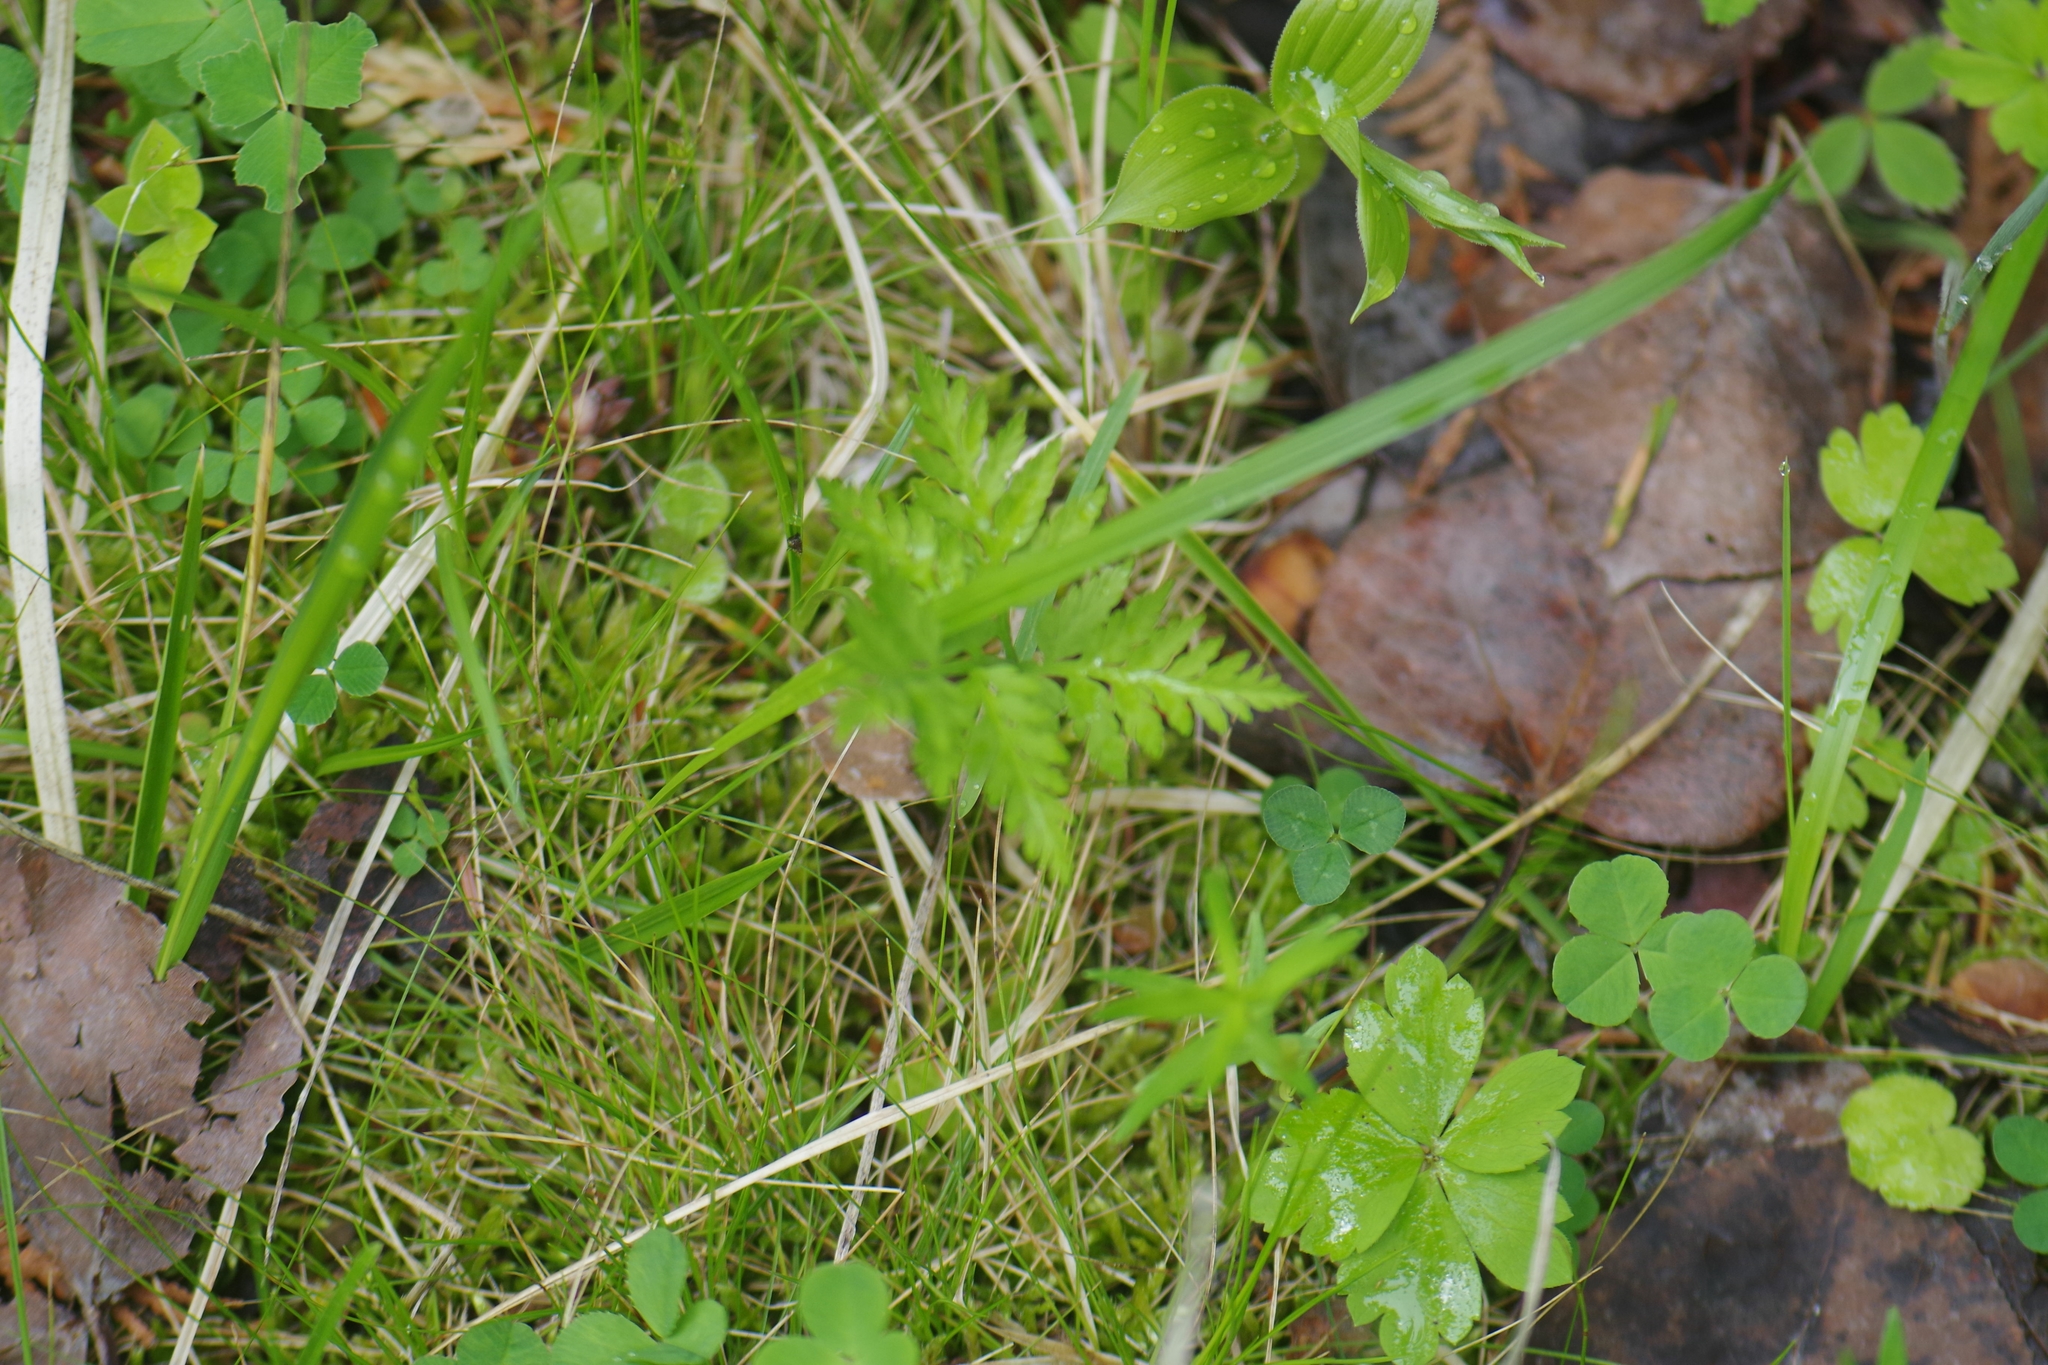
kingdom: Plantae
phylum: Tracheophyta
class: Polypodiopsida
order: Ophioglossales
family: Ophioglossaceae
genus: Botrypus
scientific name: Botrypus virginianus
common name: Common grapefern
